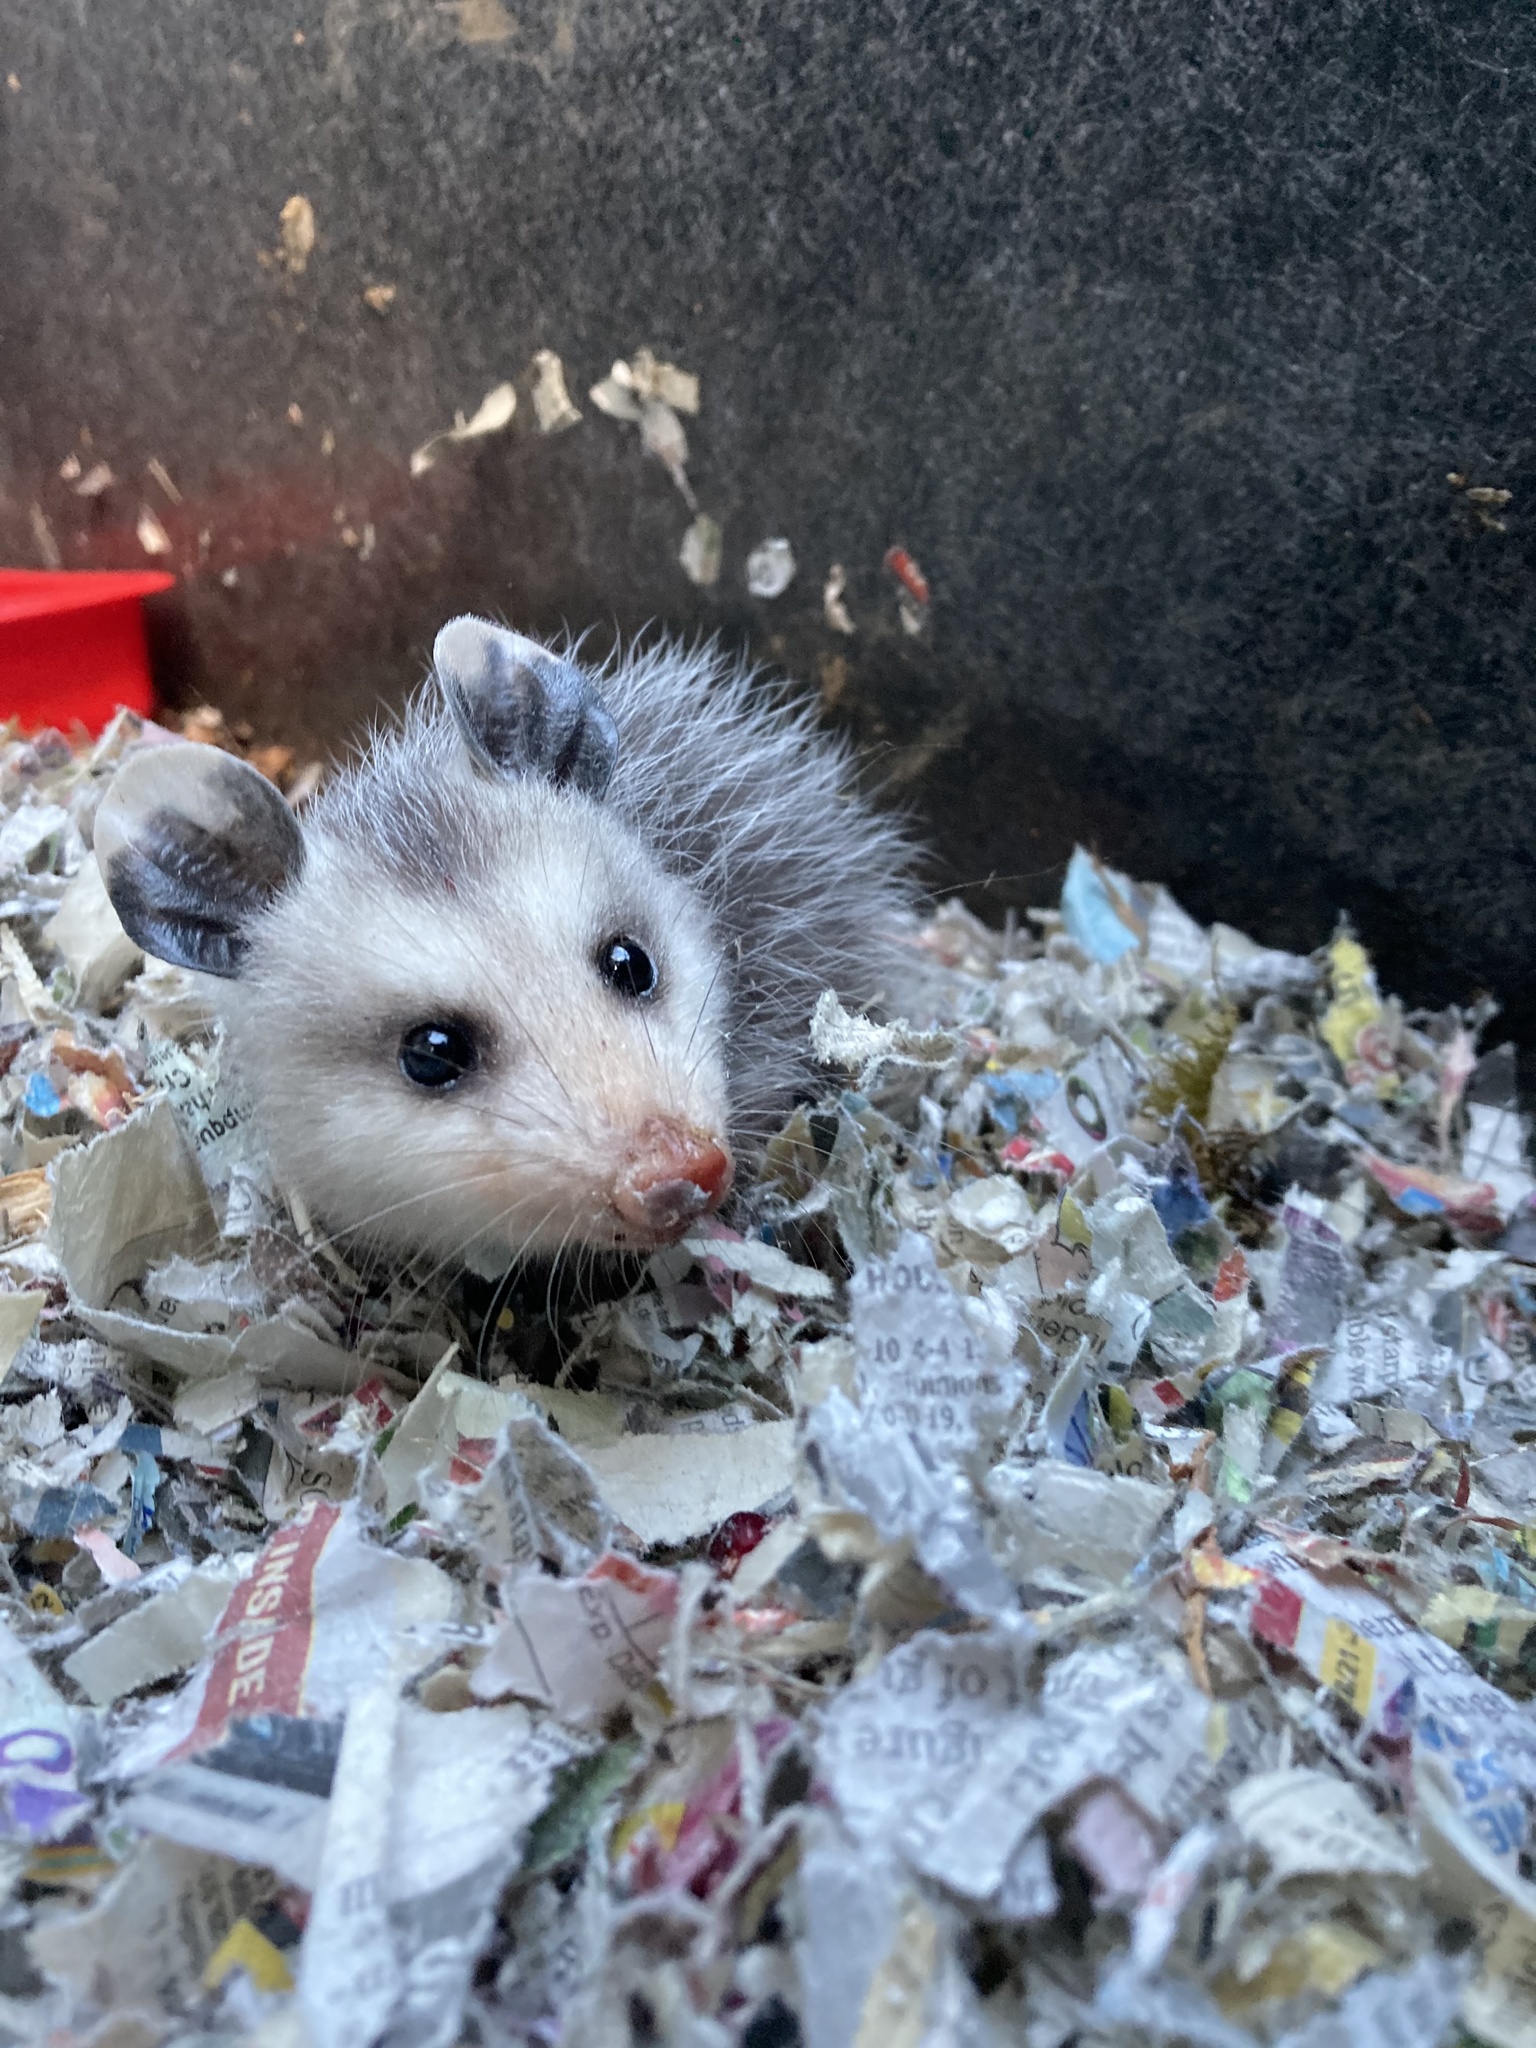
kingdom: Animalia
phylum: Chordata
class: Mammalia
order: Didelphimorphia
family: Didelphidae
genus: Didelphis
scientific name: Didelphis virginiana
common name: Virginia opossum
